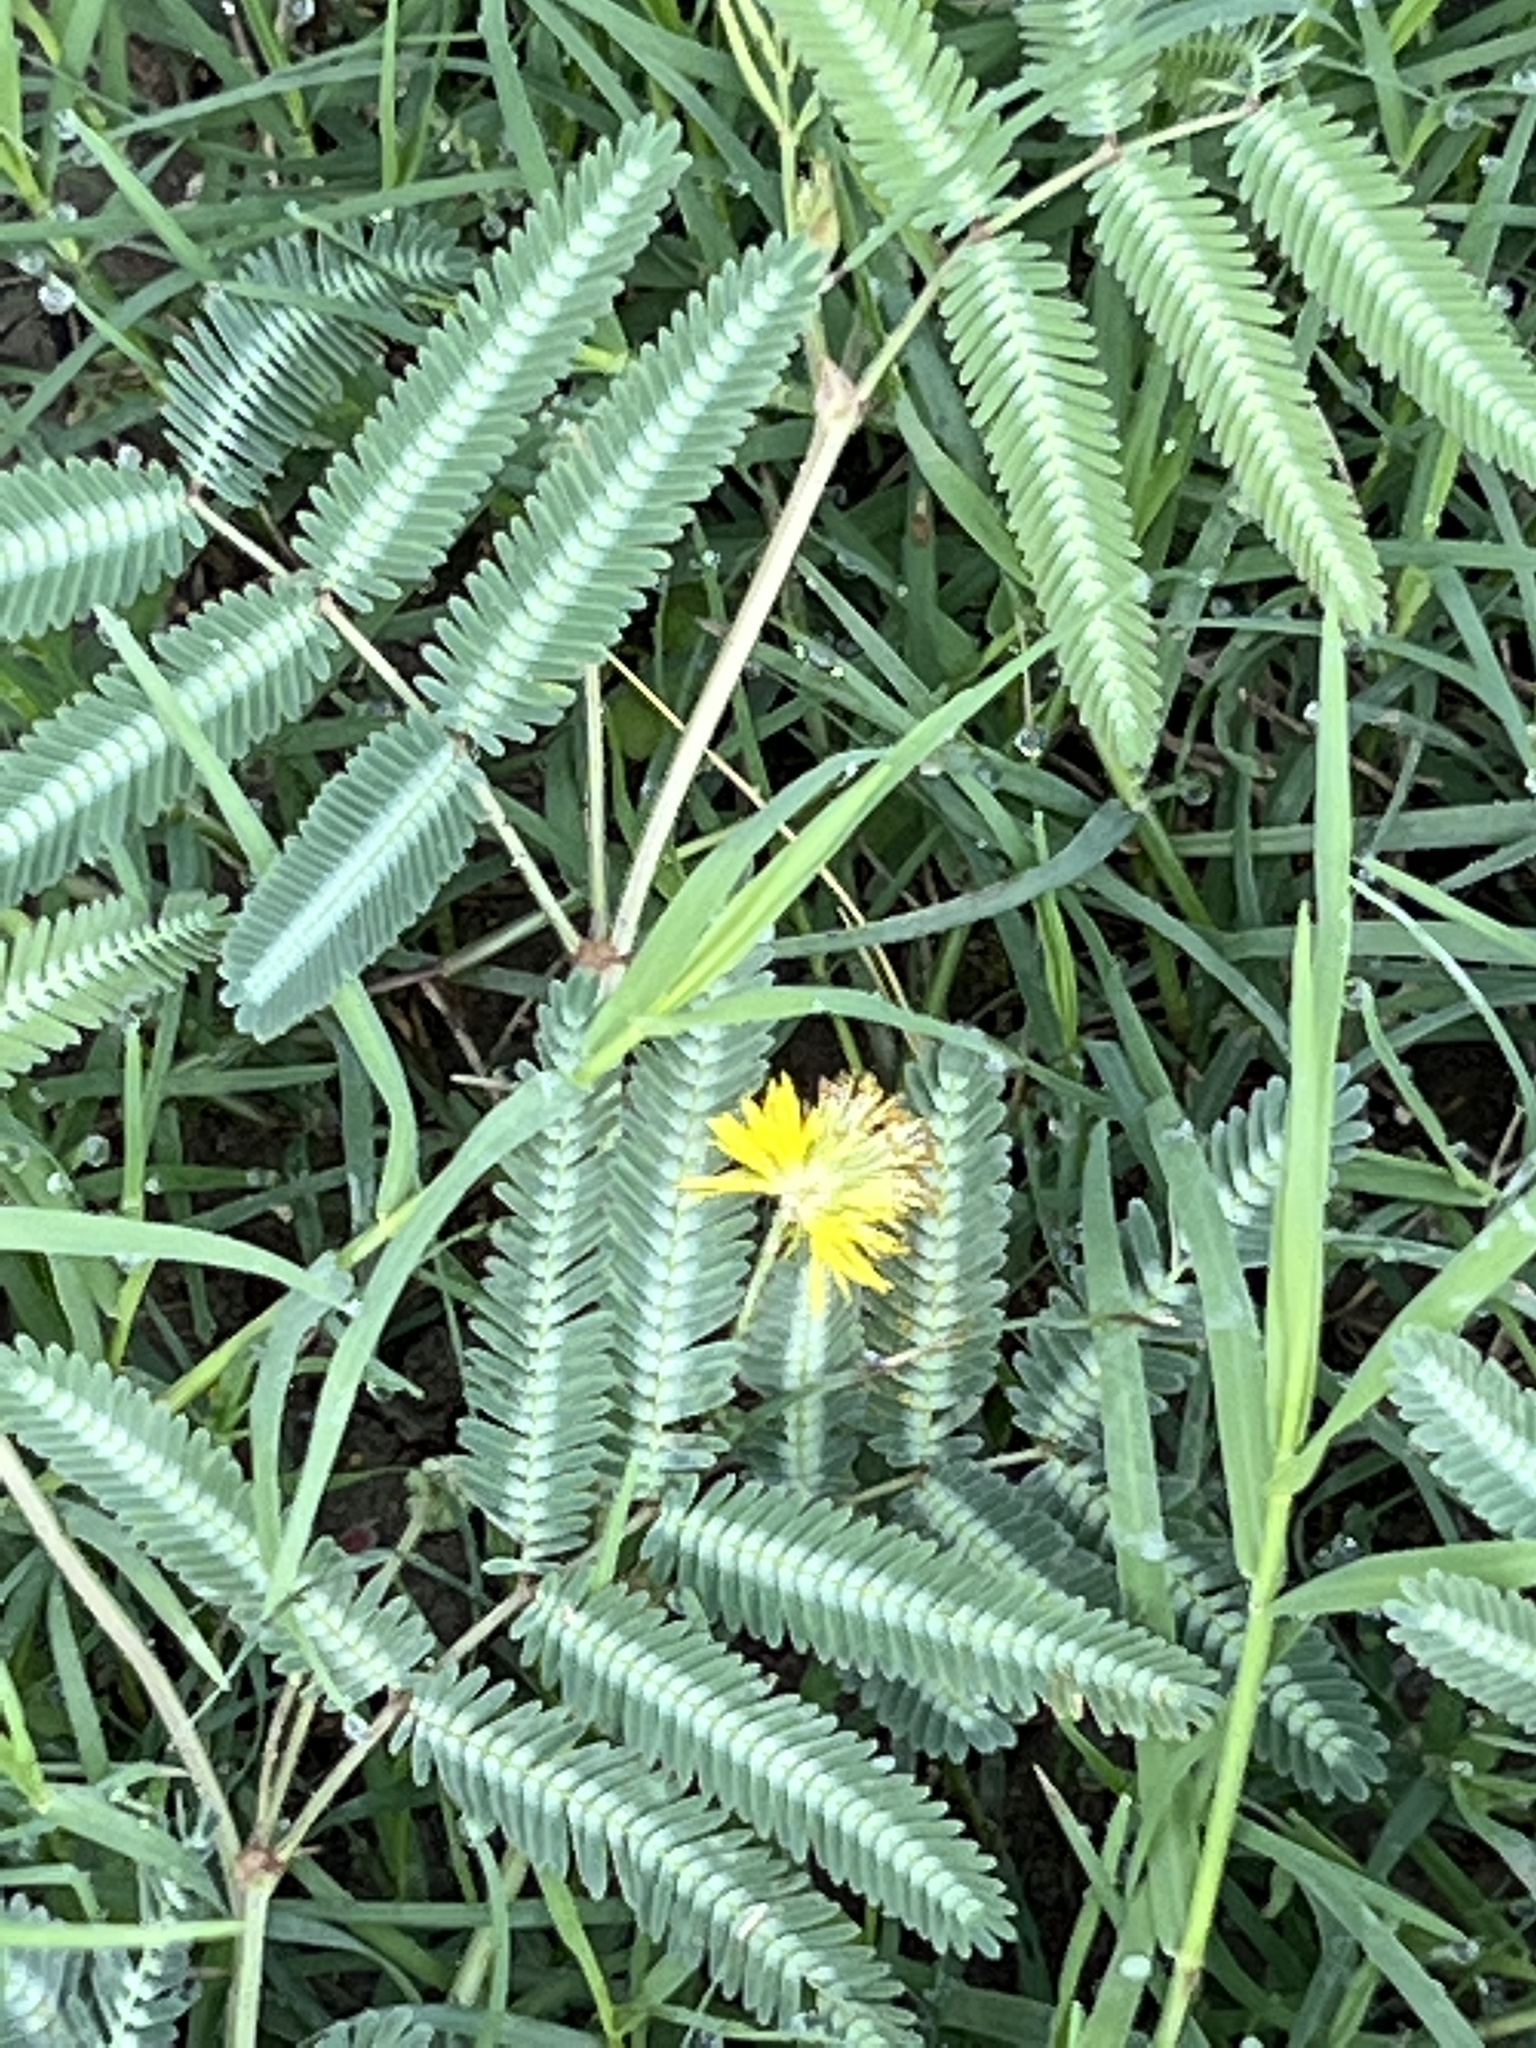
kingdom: Plantae
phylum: Tracheophyta
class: Magnoliopsida
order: Fabales
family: Fabaceae
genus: Neptunia
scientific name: Neptunia pubescens
